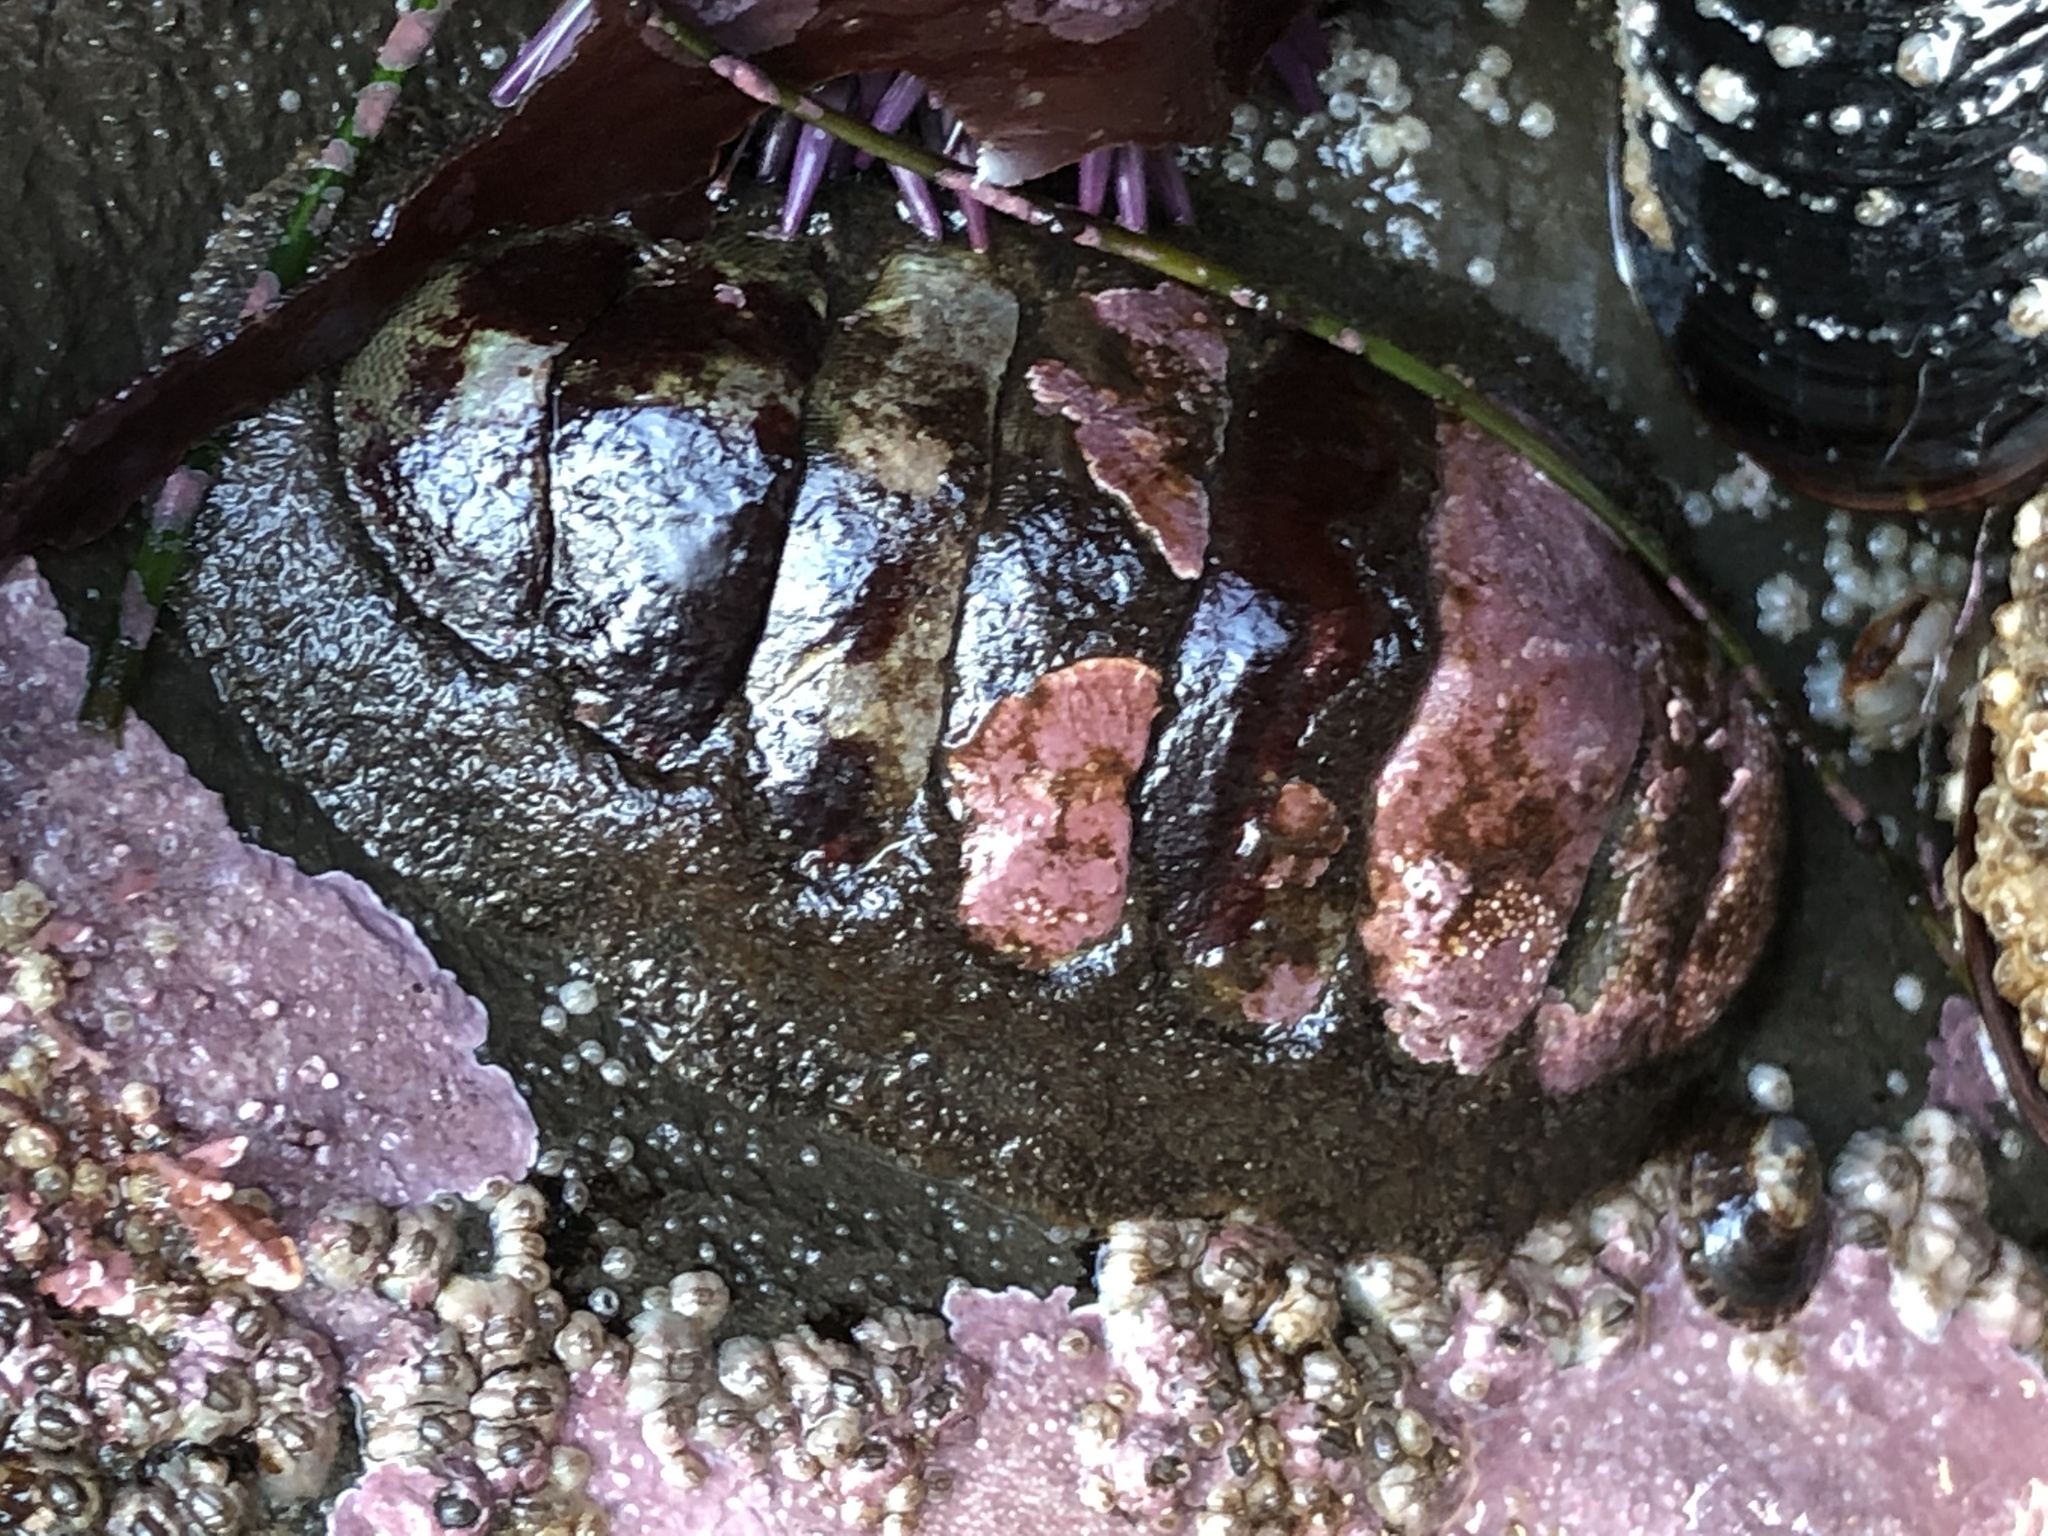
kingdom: Animalia
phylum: Mollusca
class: Polyplacophora
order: Chitonida
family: Mopaliidae
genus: Mopalia
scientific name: Mopalia hindsii
